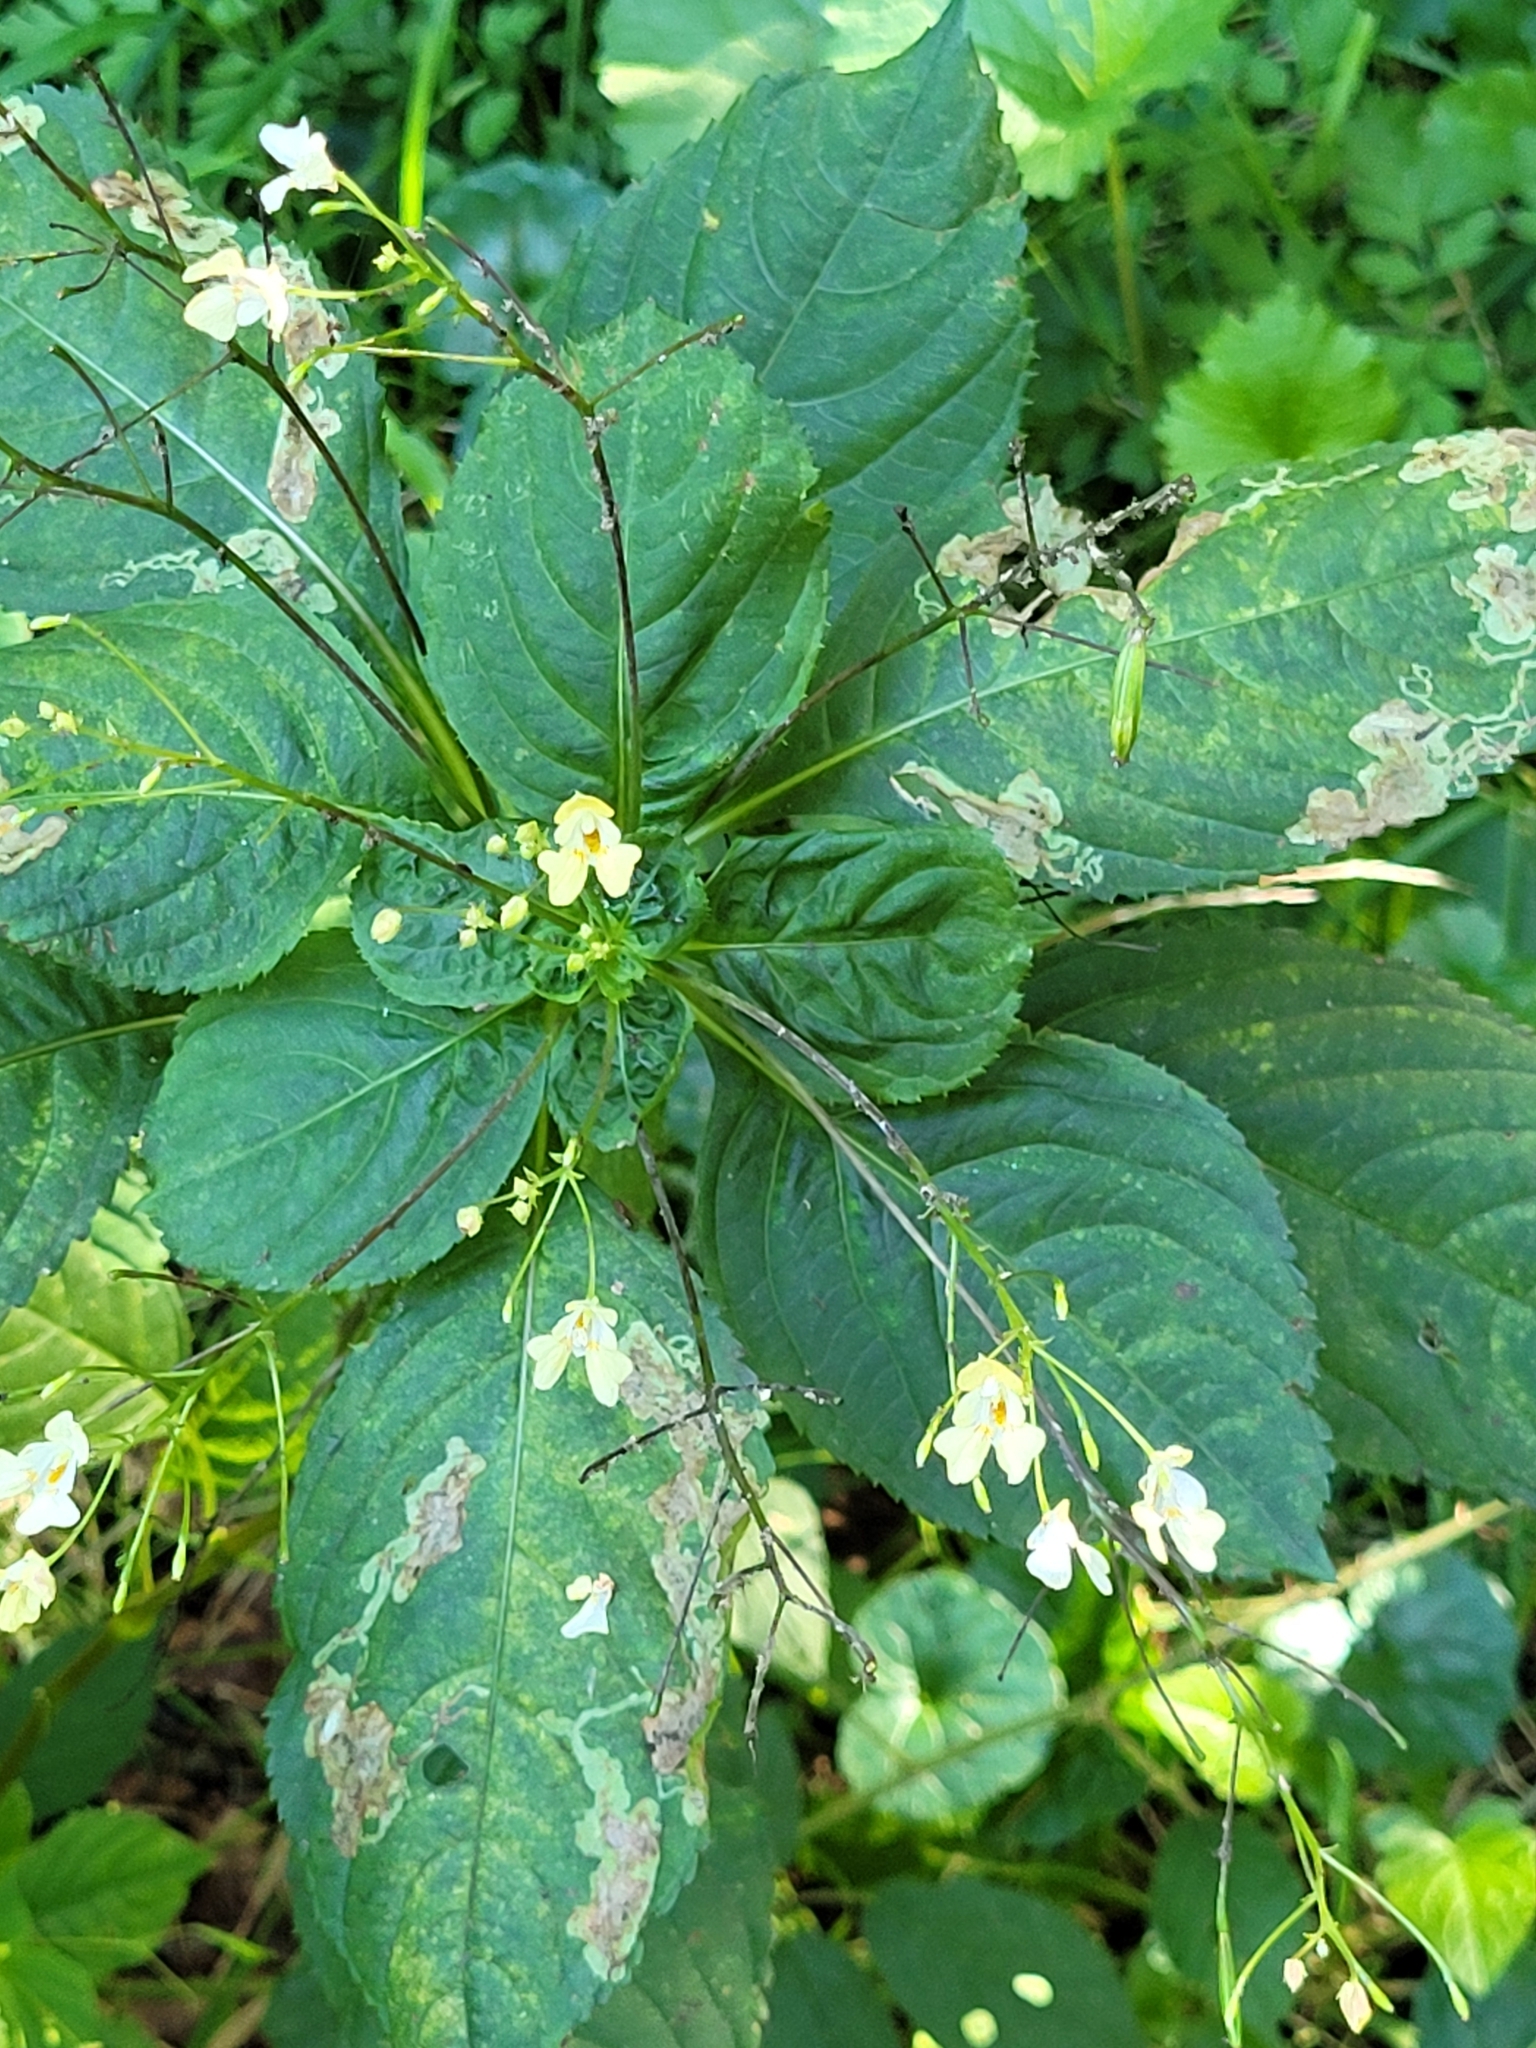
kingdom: Animalia
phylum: Arthropoda
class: Insecta
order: Diptera
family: Agromyzidae
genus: Phytoliriomyza
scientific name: Phytoliriomyza melampyga
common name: Jewelweed leaf-miner fly
